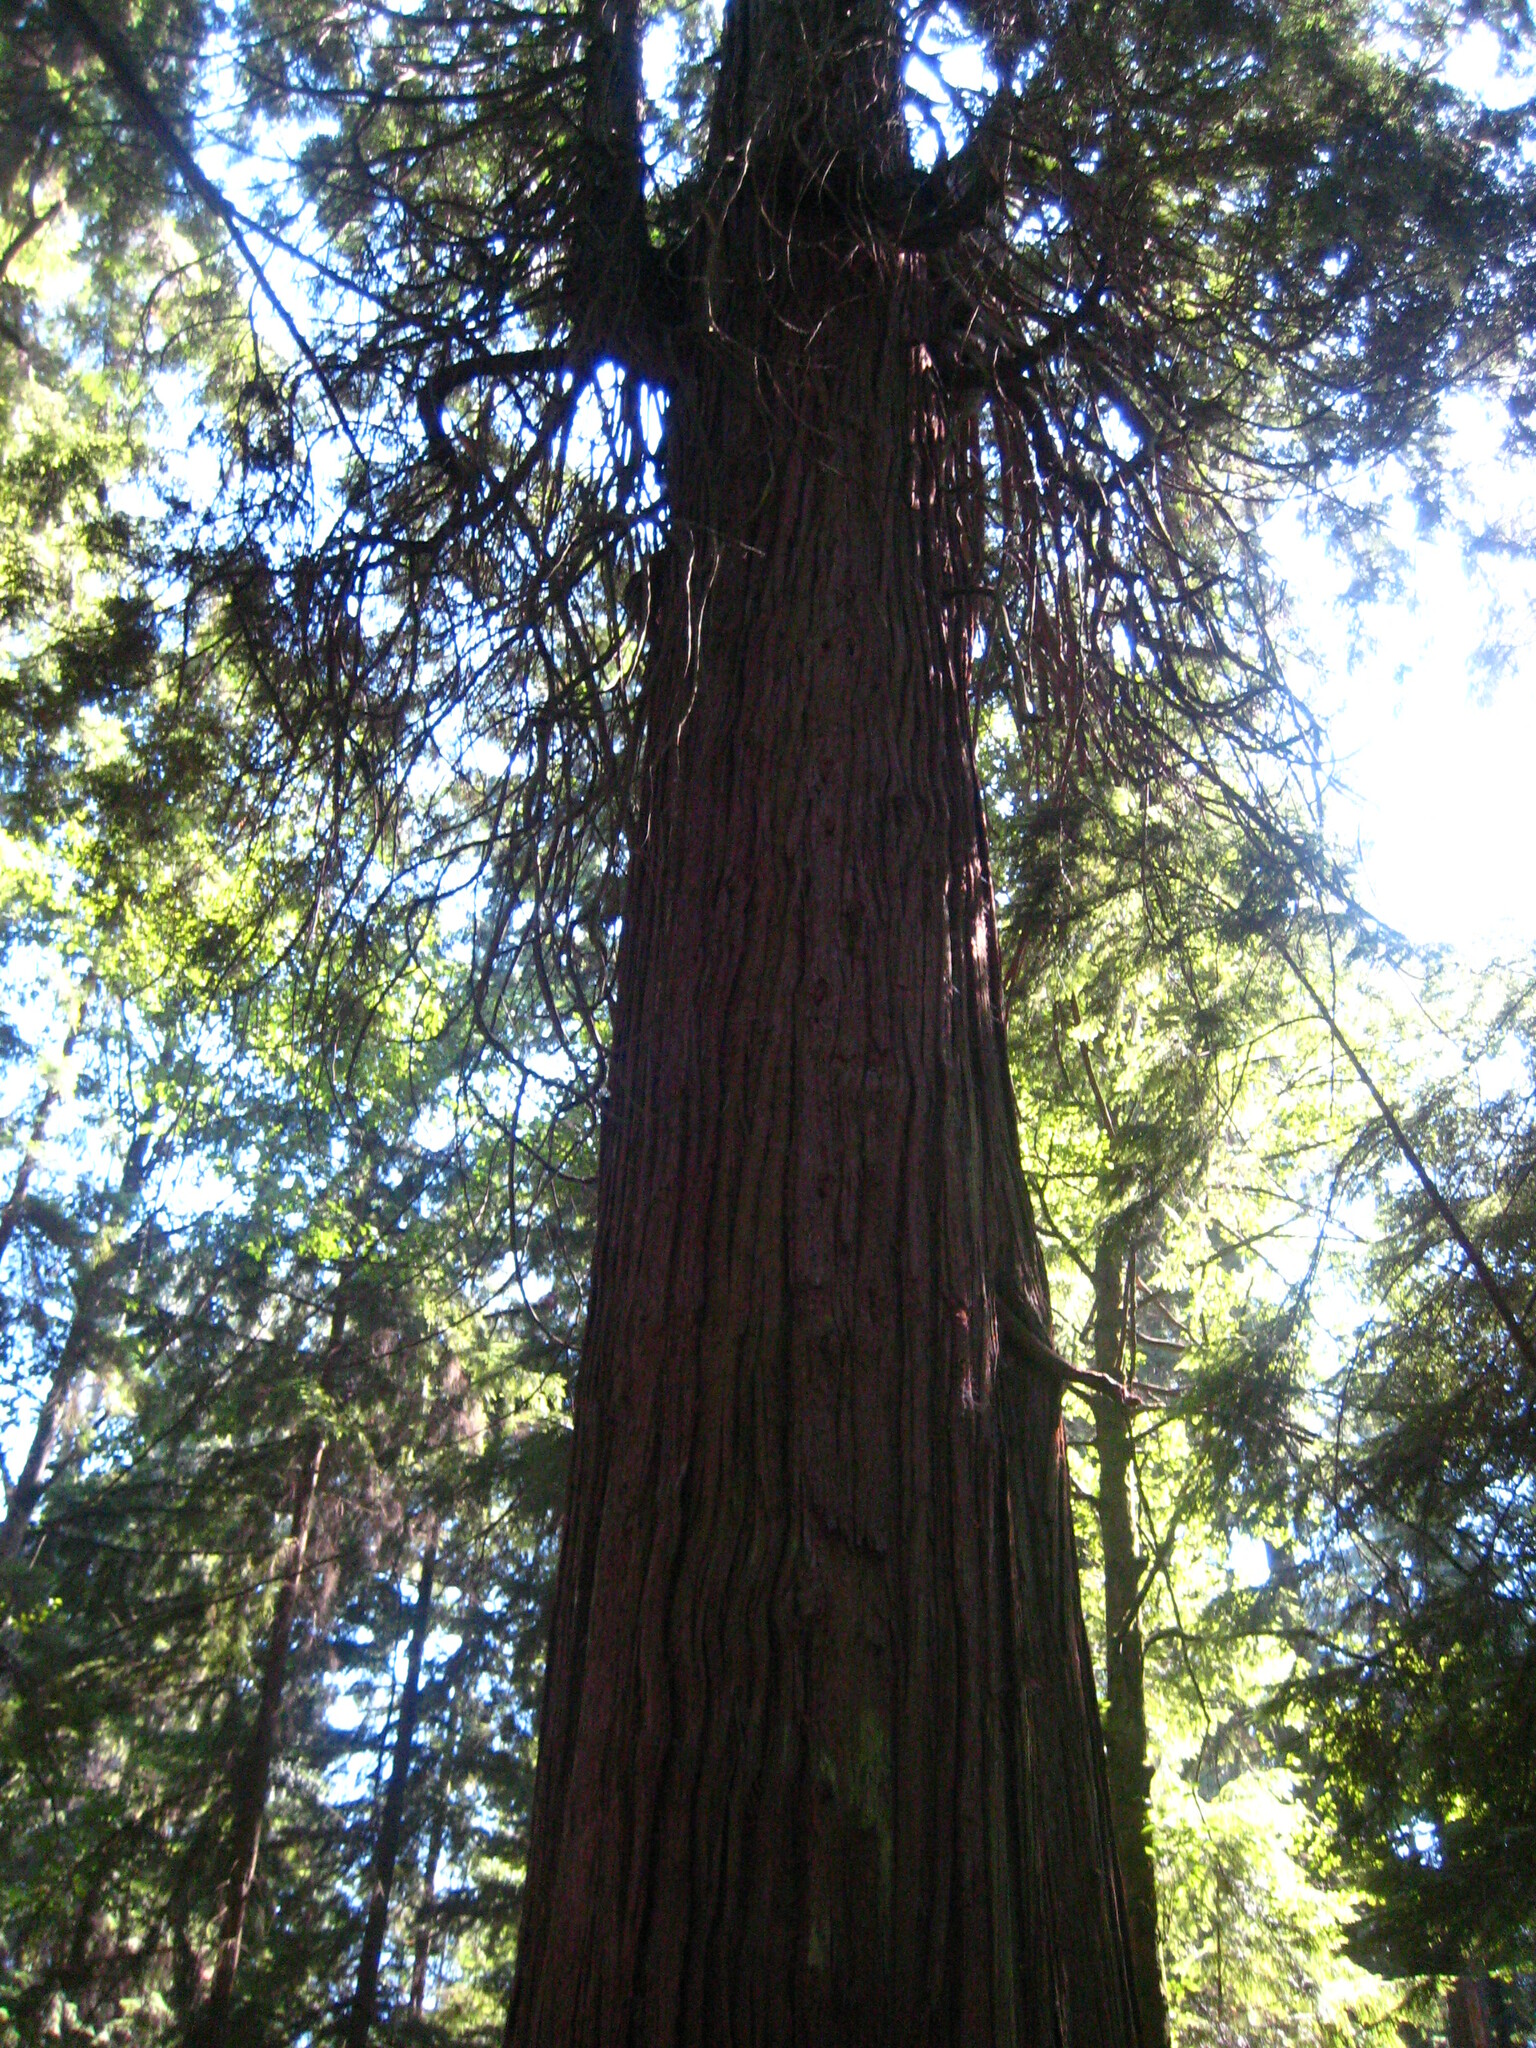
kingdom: Plantae
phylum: Tracheophyta
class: Pinopsida
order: Pinales
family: Cupressaceae
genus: Thuja
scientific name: Thuja plicata
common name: Western red-cedar
